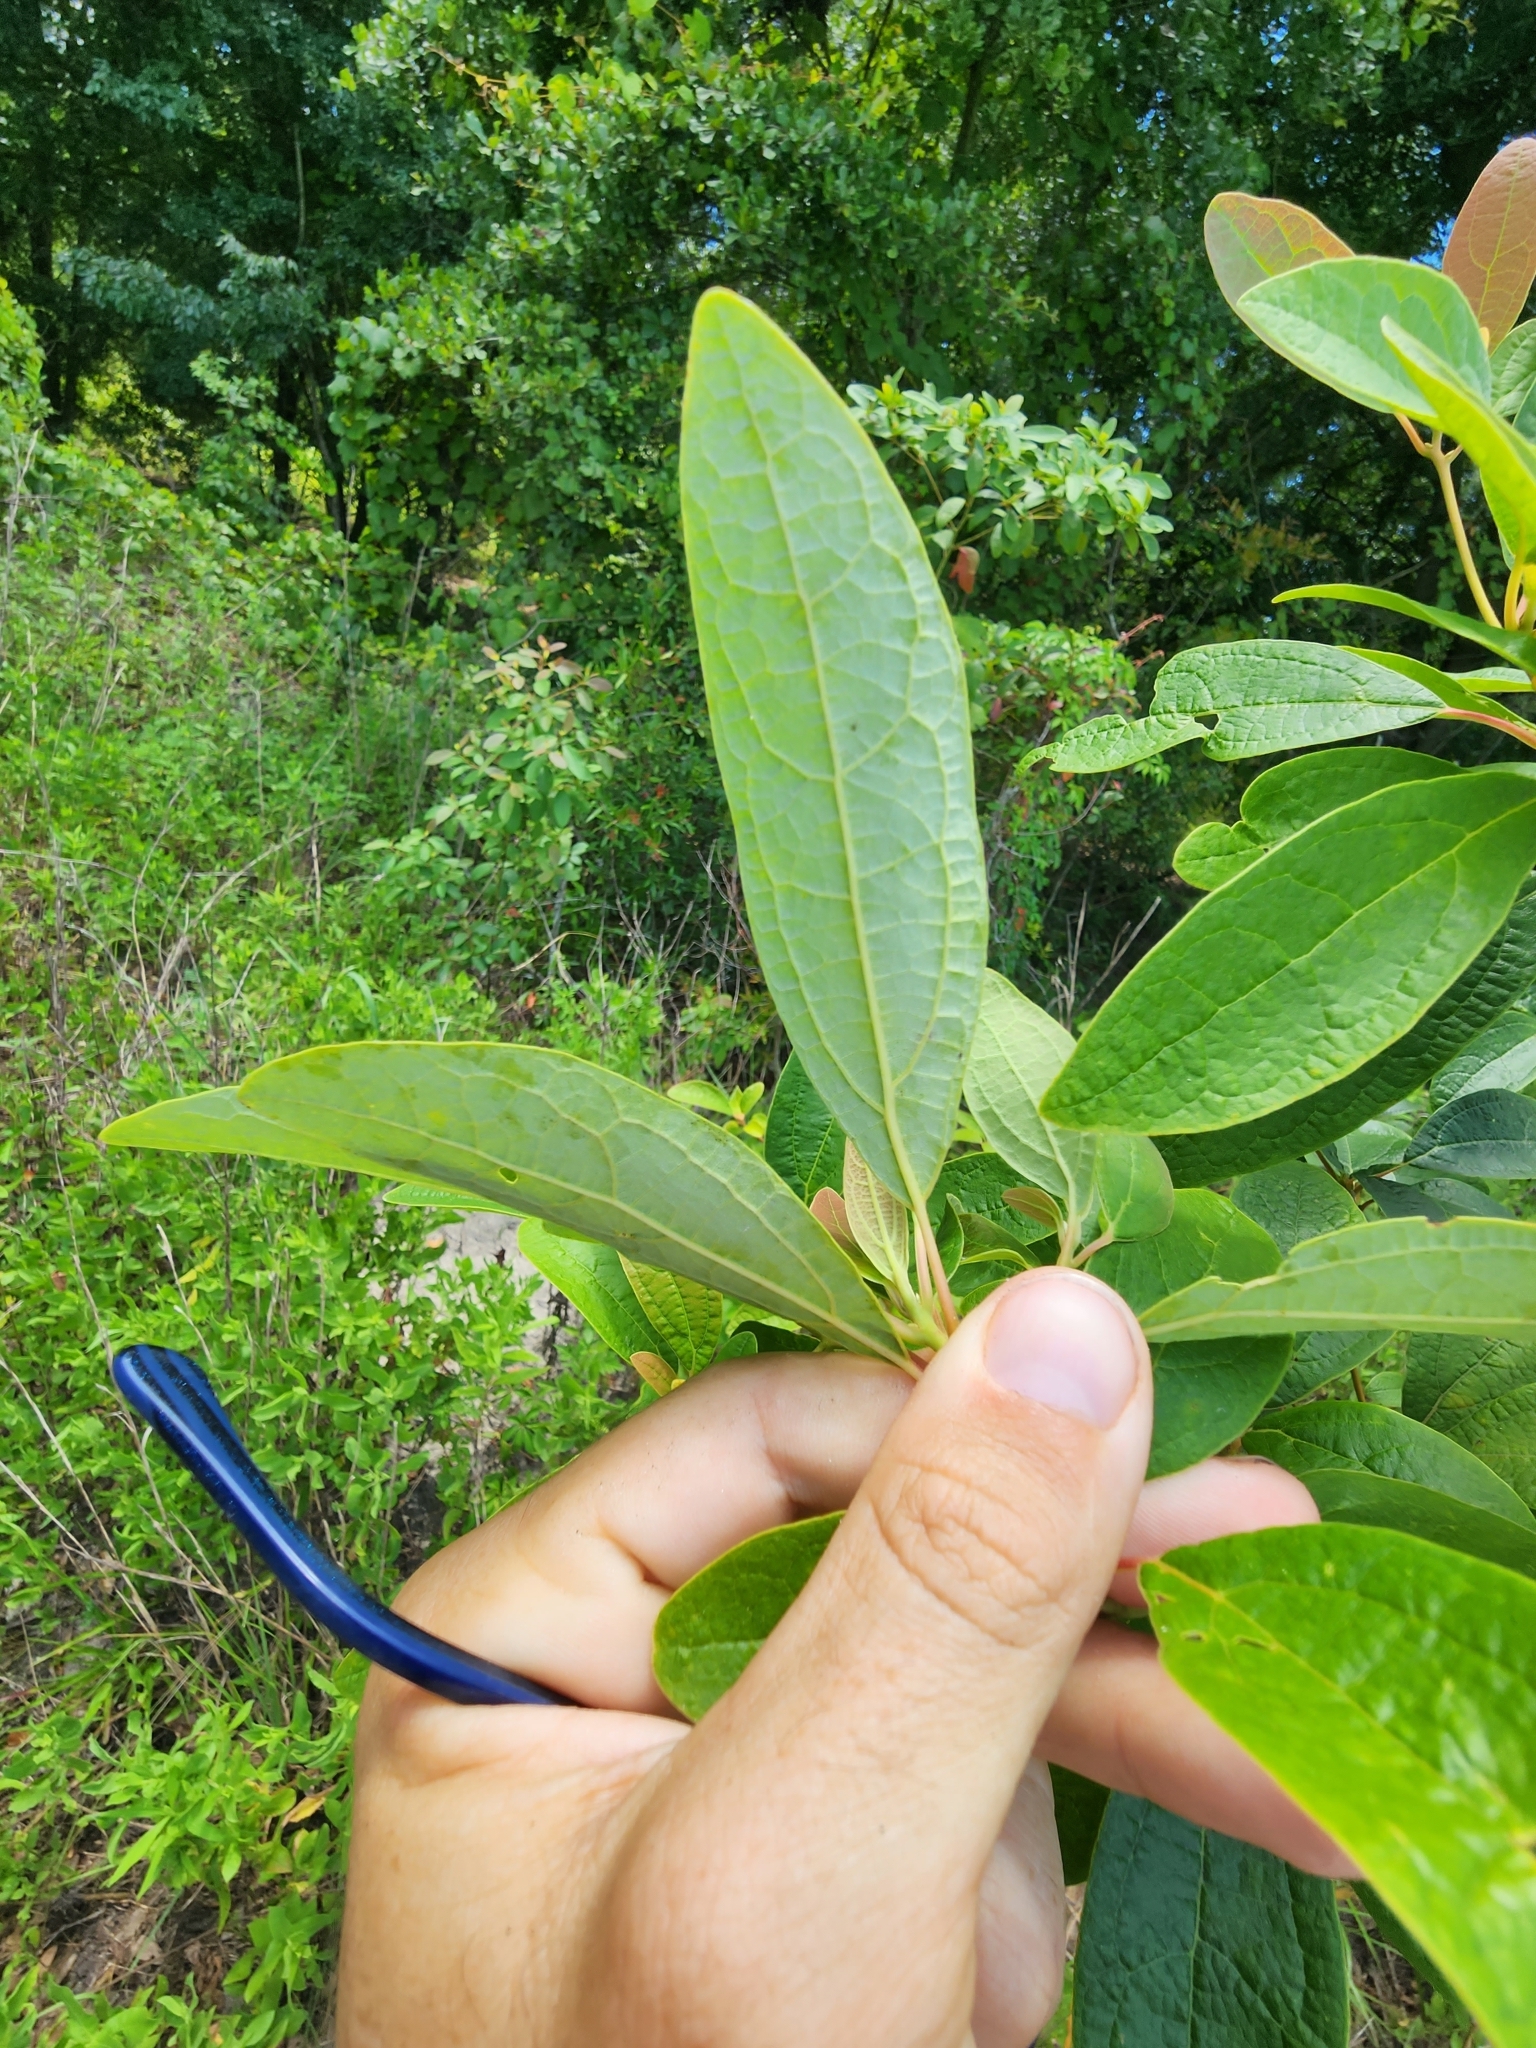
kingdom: Plantae
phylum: Tracheophyta
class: Magnoliopsida
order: Laurales
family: Lauraceae
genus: Sassafras
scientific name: Sassafras albidum
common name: Sassafras
